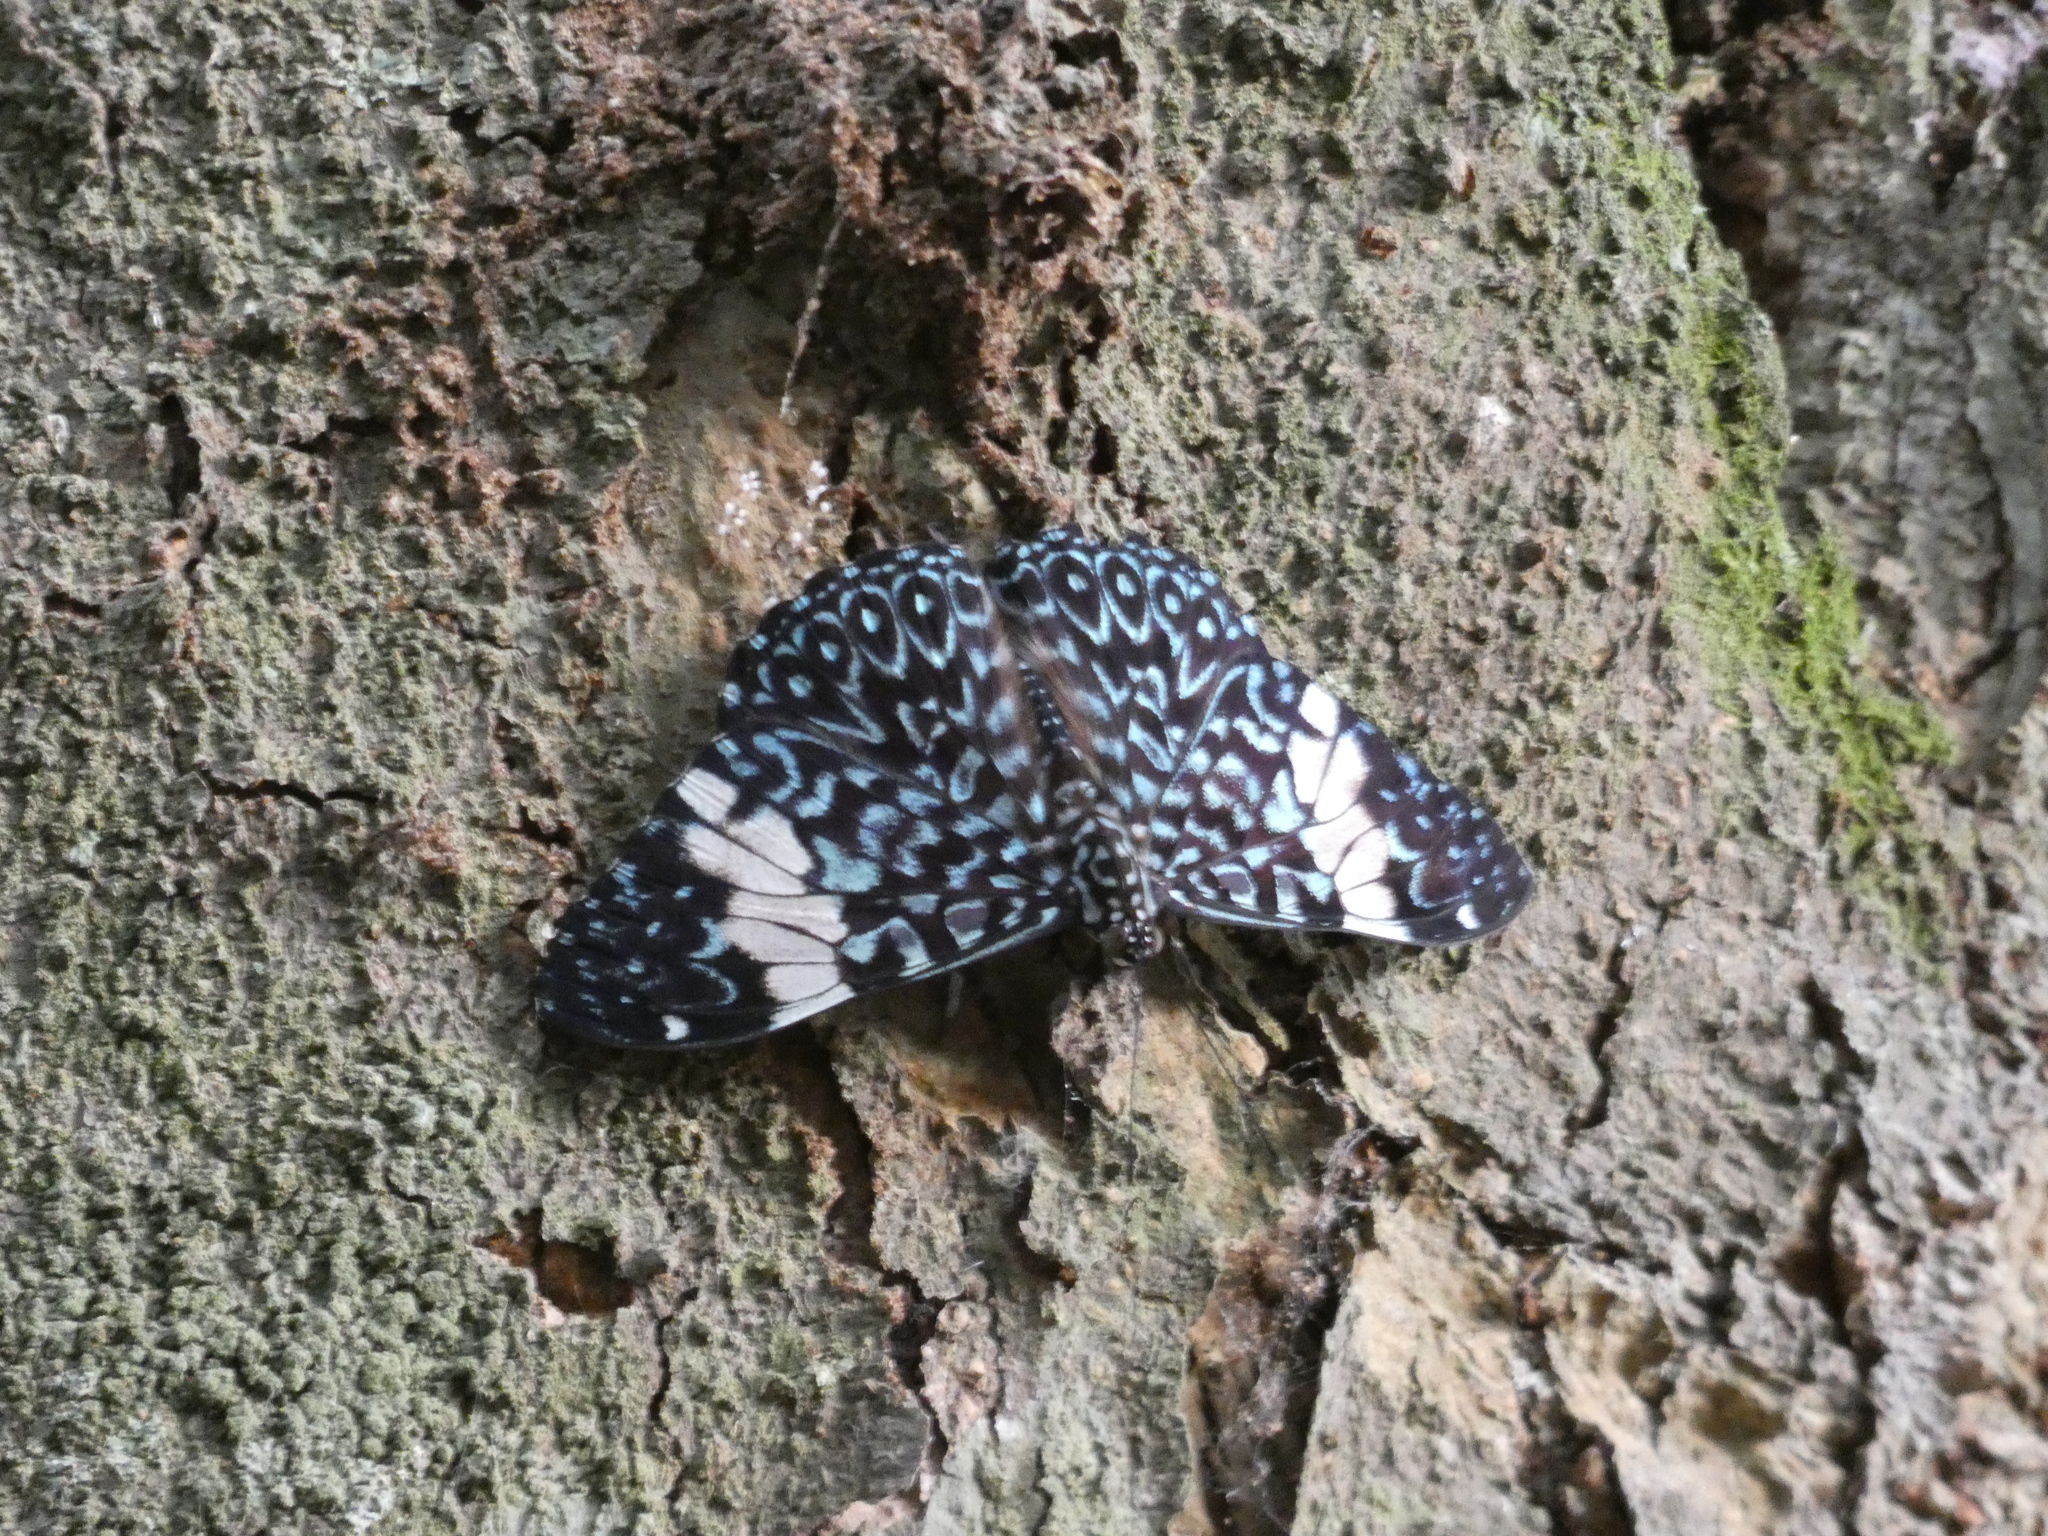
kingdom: Animalia
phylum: Arthropoda
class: Insecta
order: Lepidoptera
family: Nymphalidae
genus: Hamadryas
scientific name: Hamadryas amphinome
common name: Red cracker
